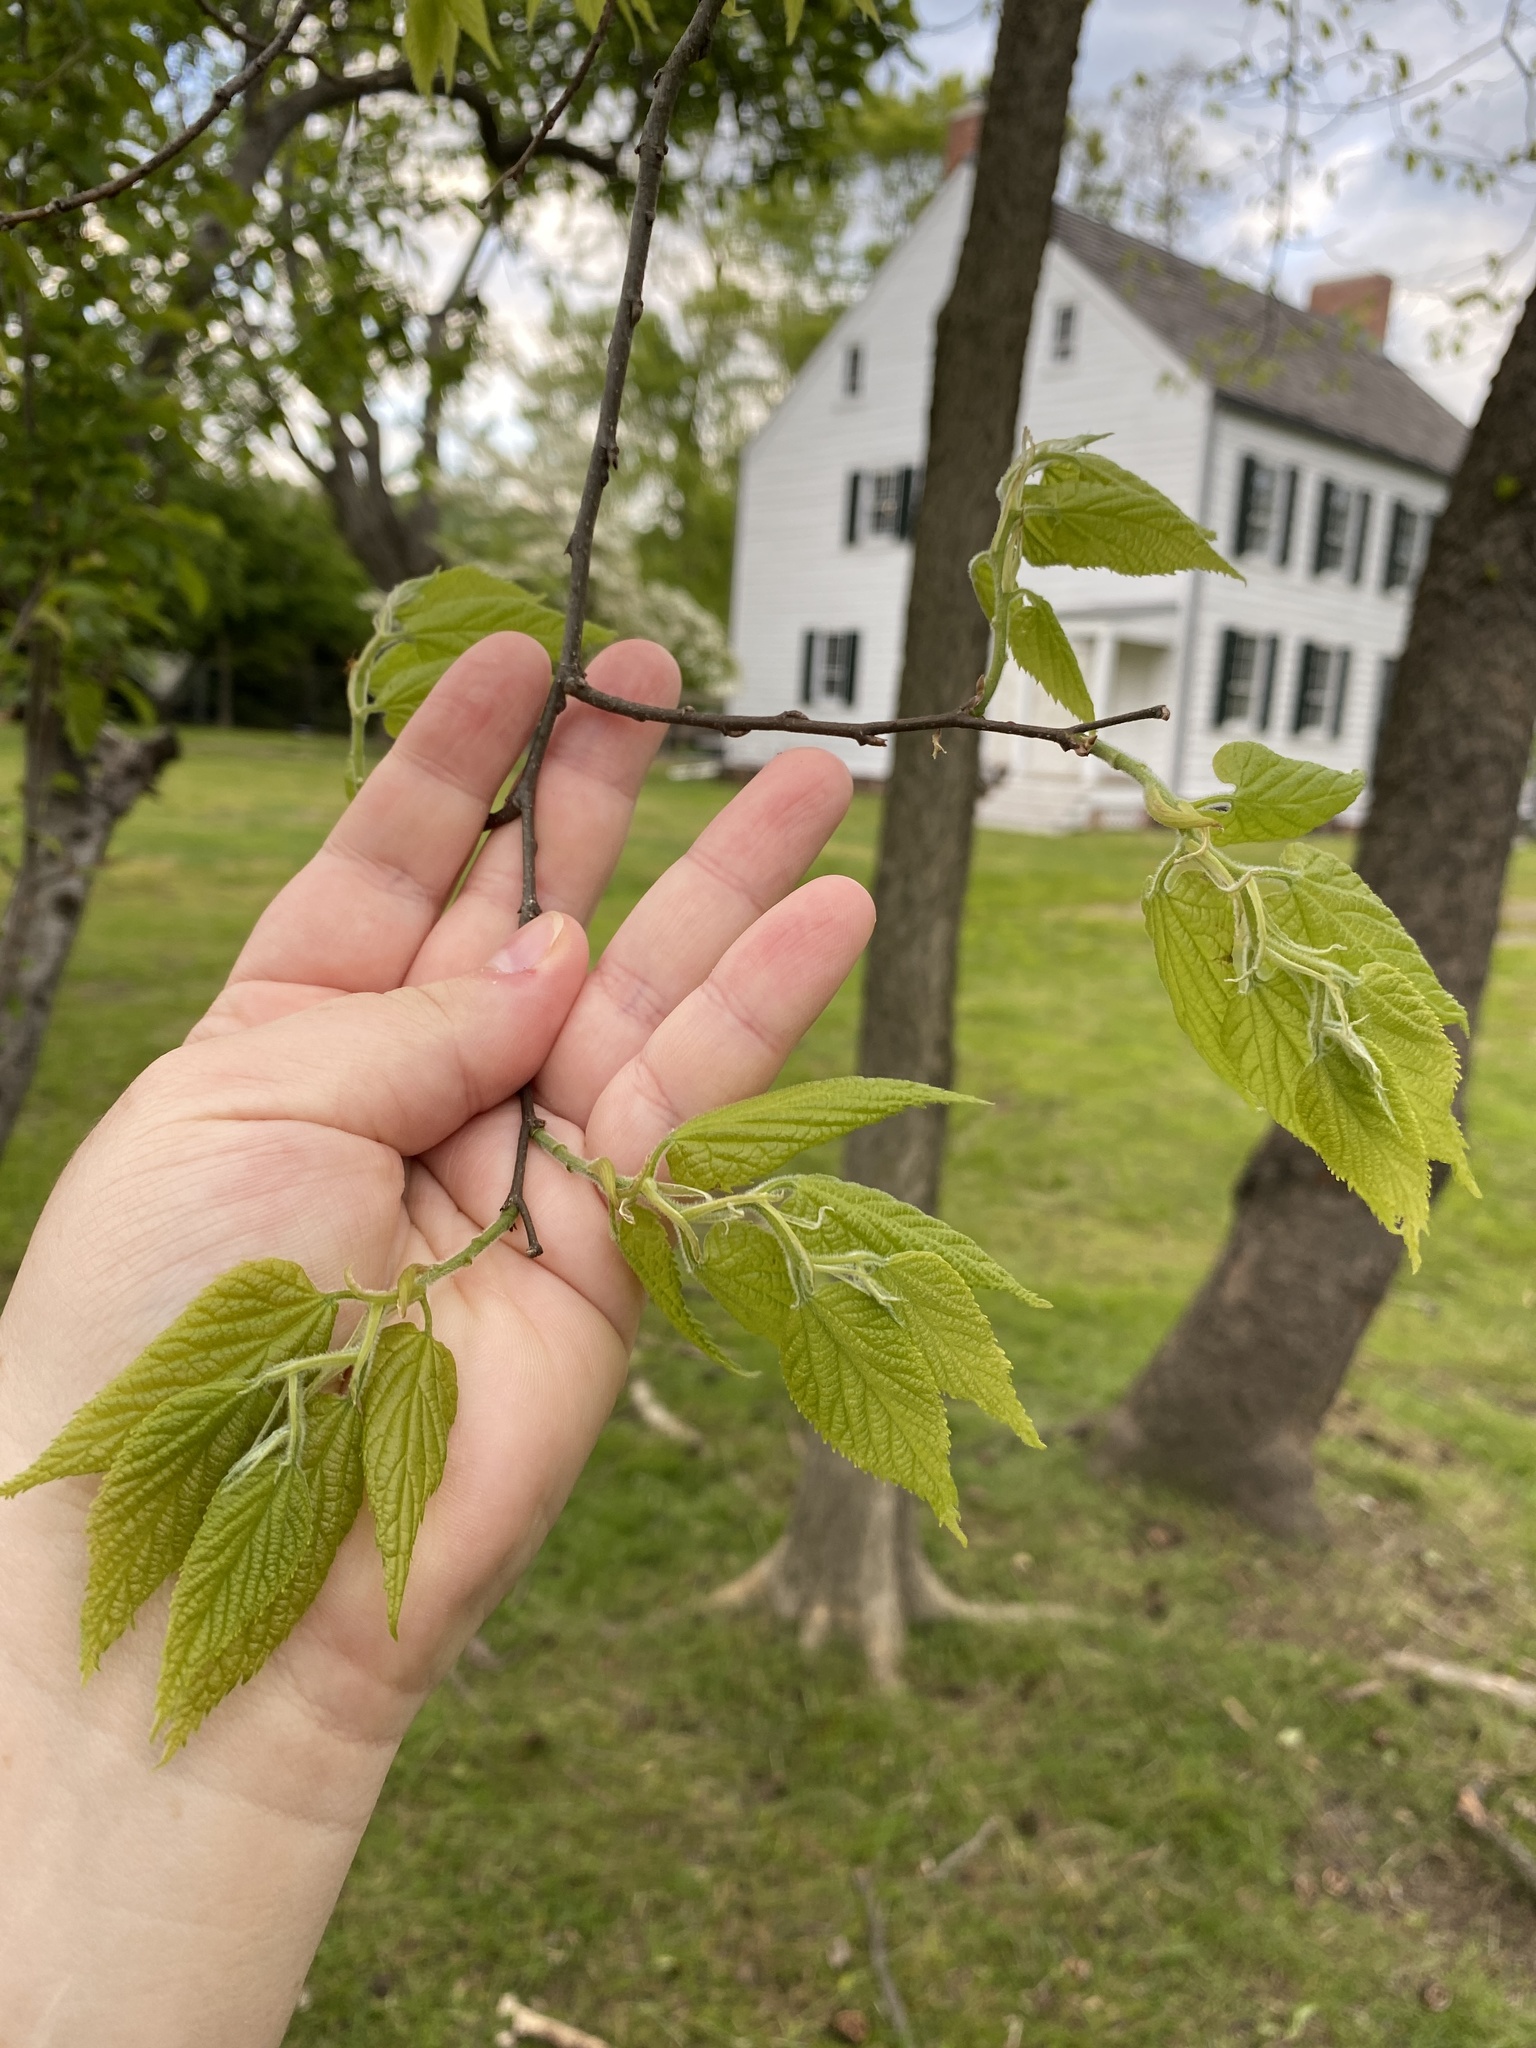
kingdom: Plantae
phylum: Tracheophyta
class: Magnoliopsida
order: Rosales
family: Cannabaceae
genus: Celtis
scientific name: Celtis occidentalis
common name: Common hackberry
